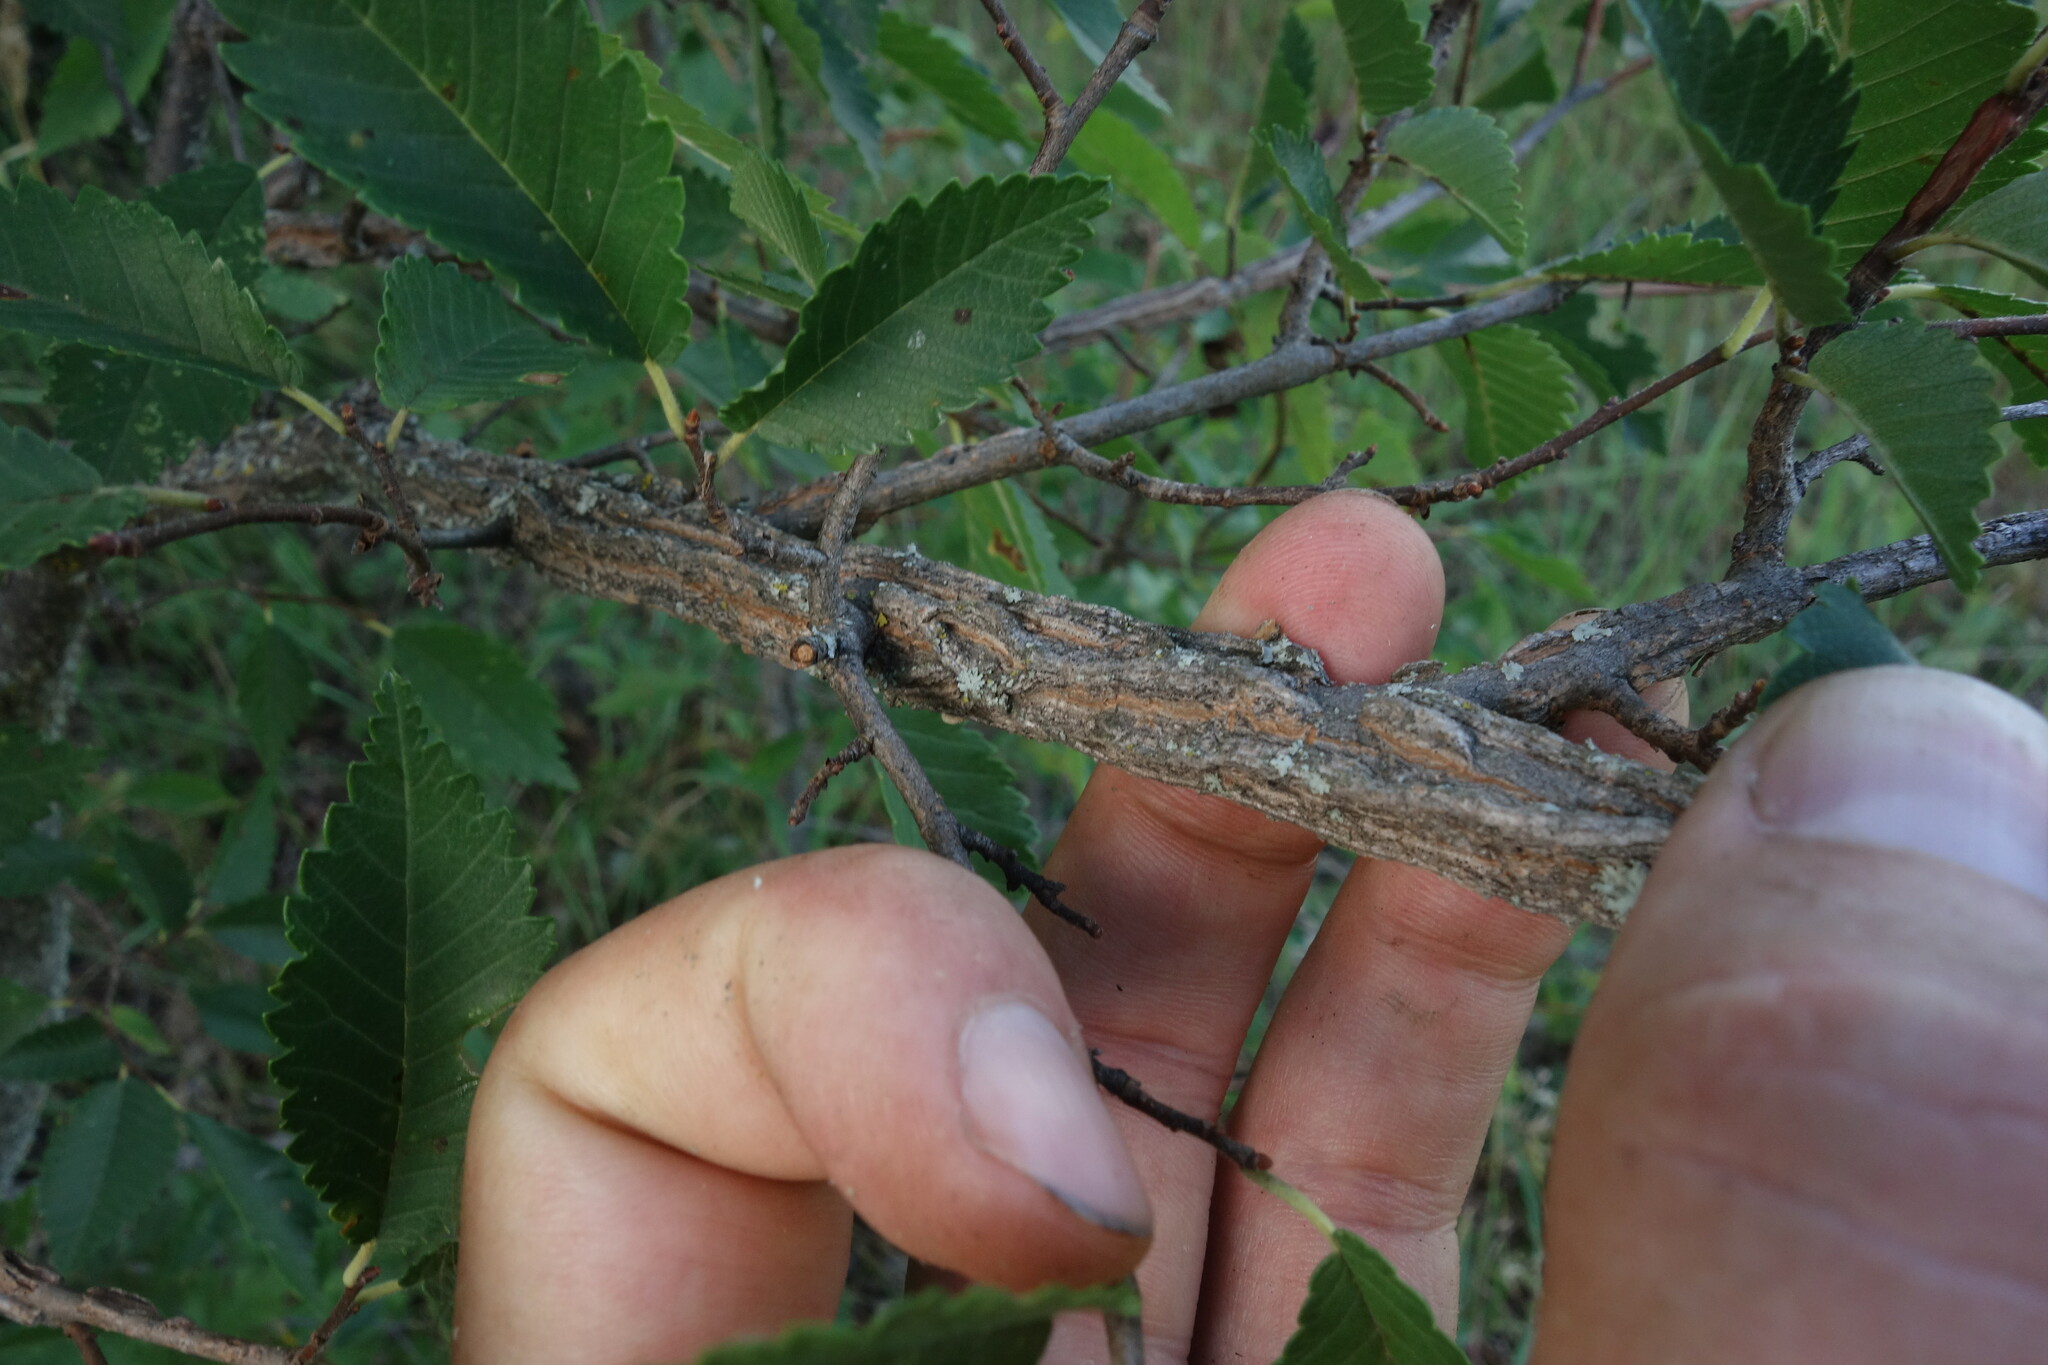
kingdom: Plantae
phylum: Tracheophyta
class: Magnoliopsida
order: Rosales
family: Ulmaceae
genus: Ulmus
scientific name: Ulmus minor
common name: Small-leaved elm
